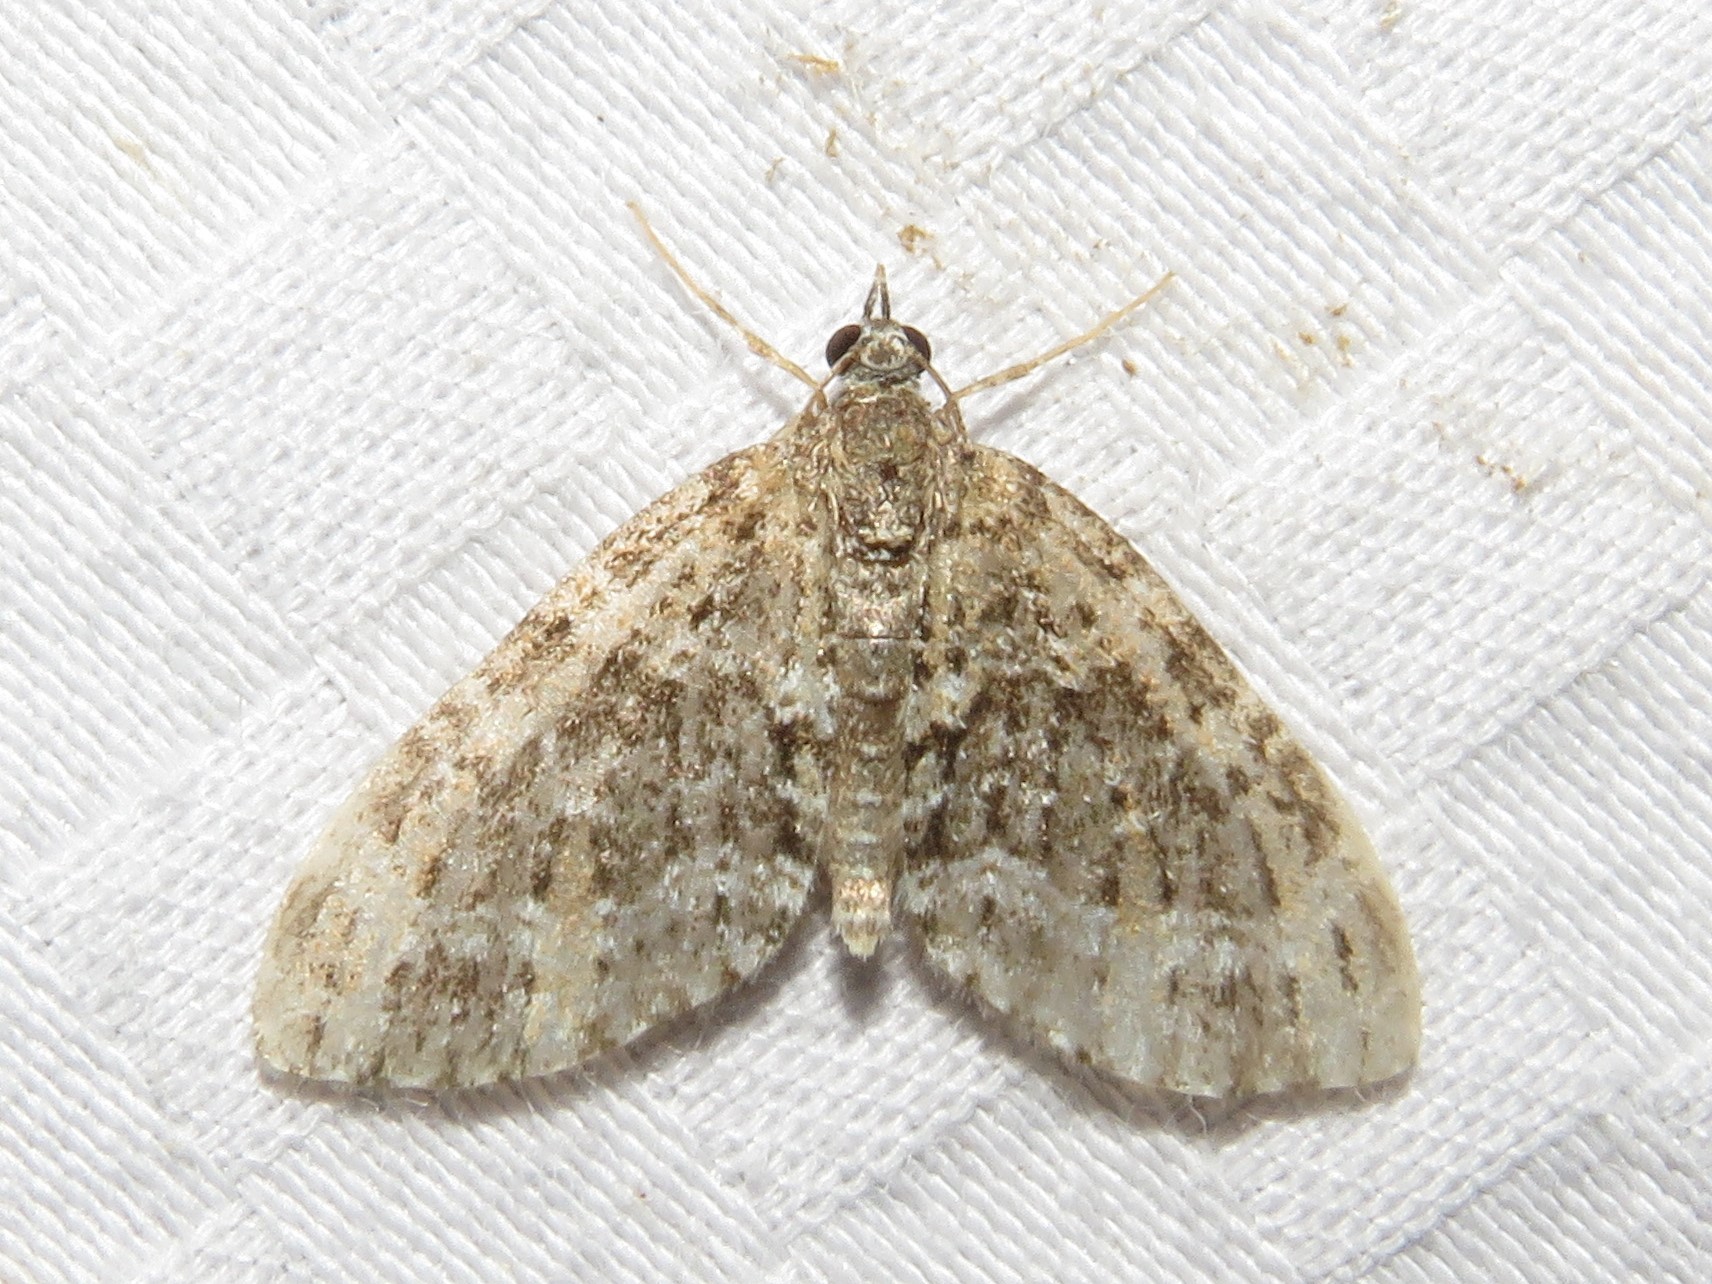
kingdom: Animalia
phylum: Arthropoda
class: Insecta
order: Lepidoptera
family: Geometridae
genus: Acasis
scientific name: Acasis viridata
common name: Olive-and-black carpet moth
